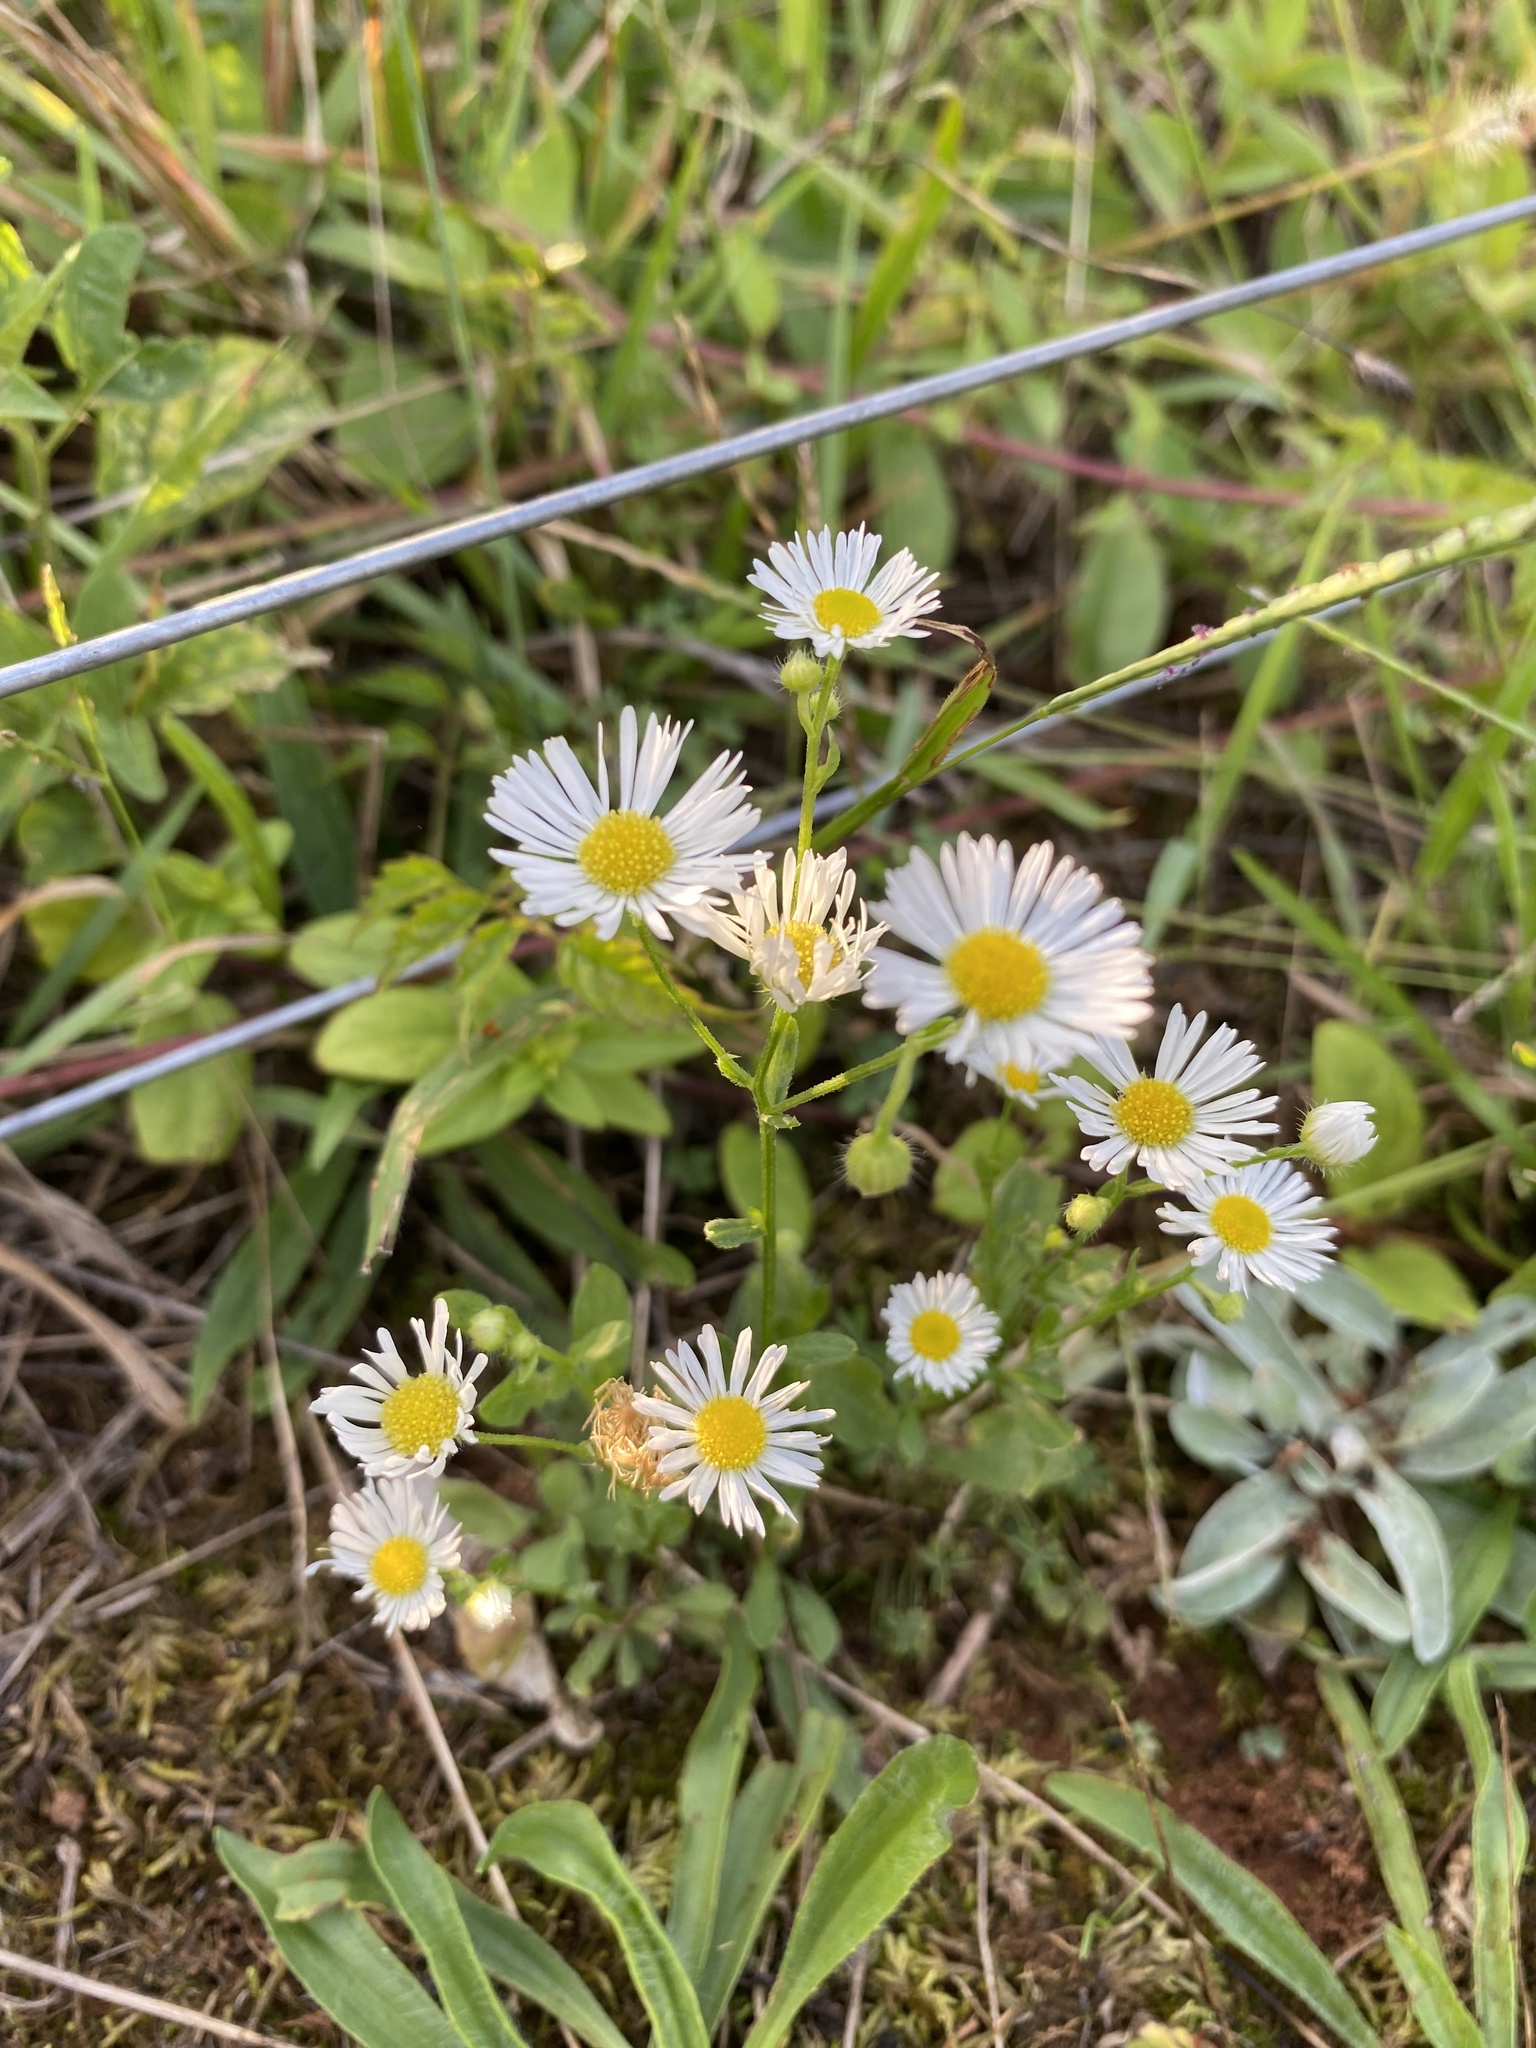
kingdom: Plantae
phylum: Tracheophyta
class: Magnoliopsida
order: Asterales
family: Asteraceae
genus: Erigeron
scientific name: Erigeron strigosus
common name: Common eastern fleabane
